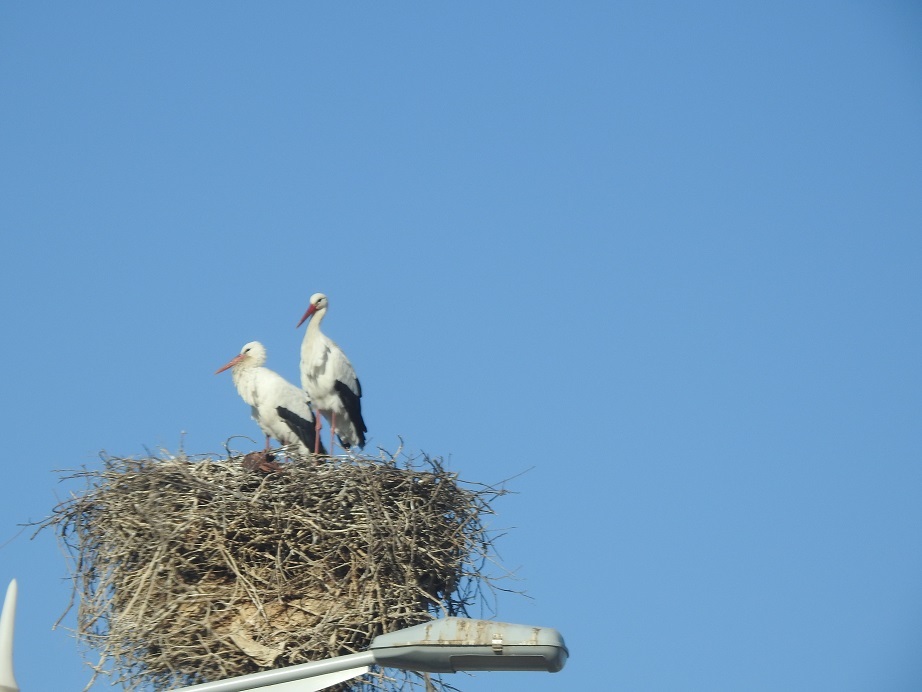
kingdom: Animalia
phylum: Chordata
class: Aves
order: Ciconiiformes
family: Ciconiidae
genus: Ciconia
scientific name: Ciconia ciconia
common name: White stork
